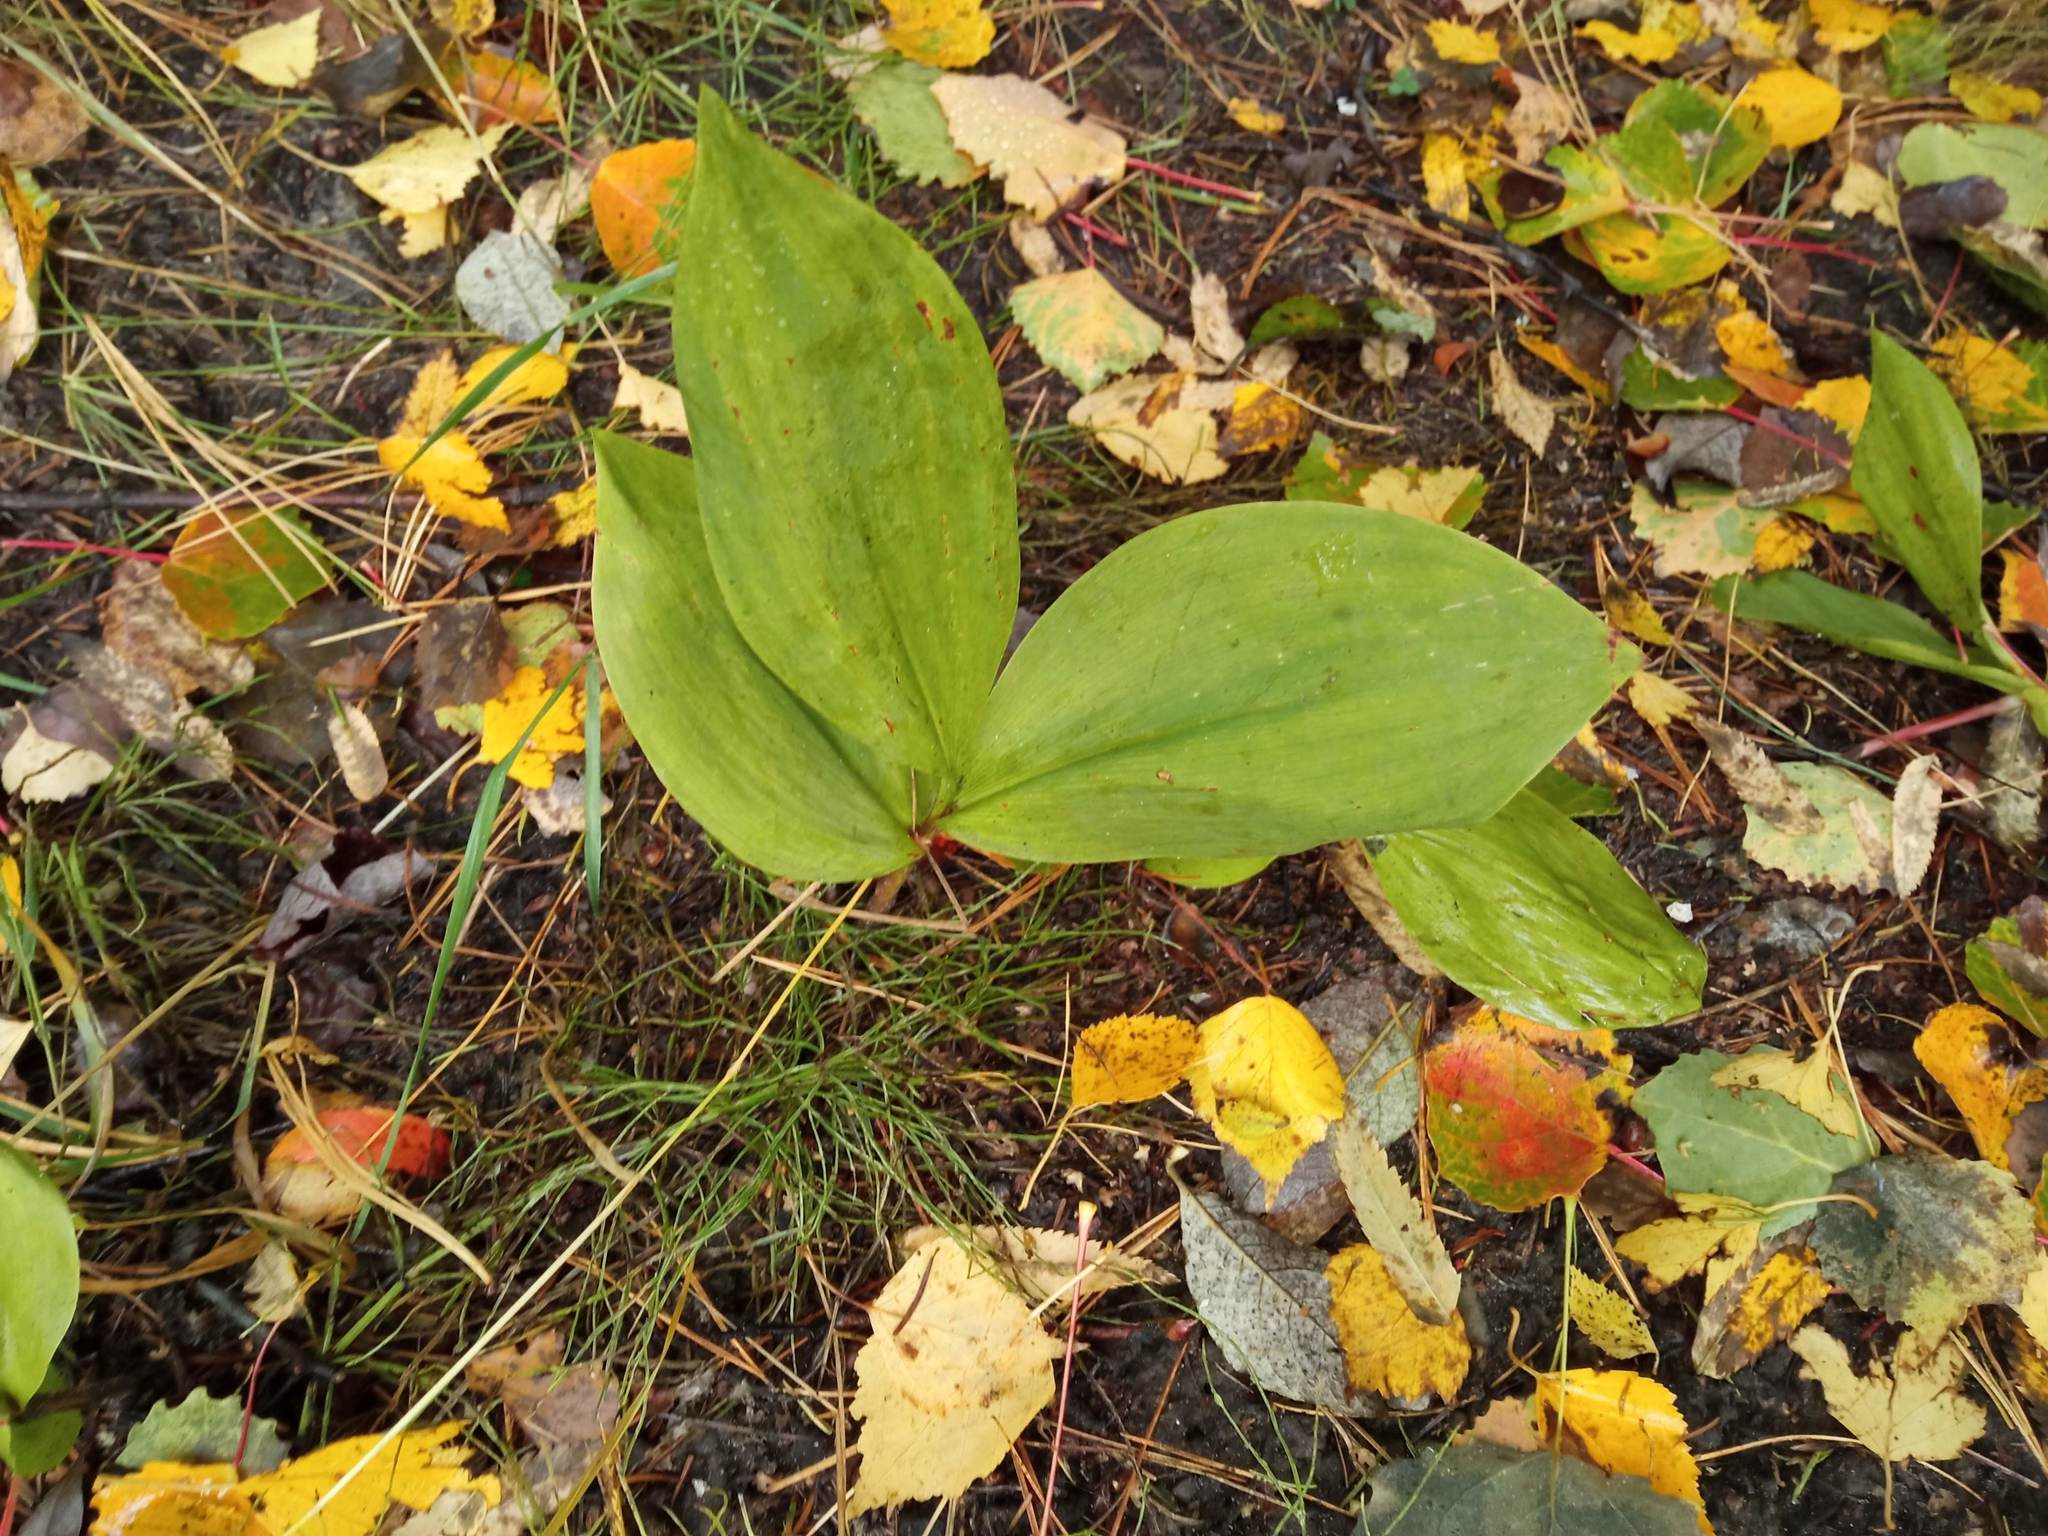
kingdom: Plantae
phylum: Tracheophyta
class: Liliopsida
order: Asparagales
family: Asparagaceae
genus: Convallaria
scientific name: Convallaria majalis
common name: Lily-of-the-valley
